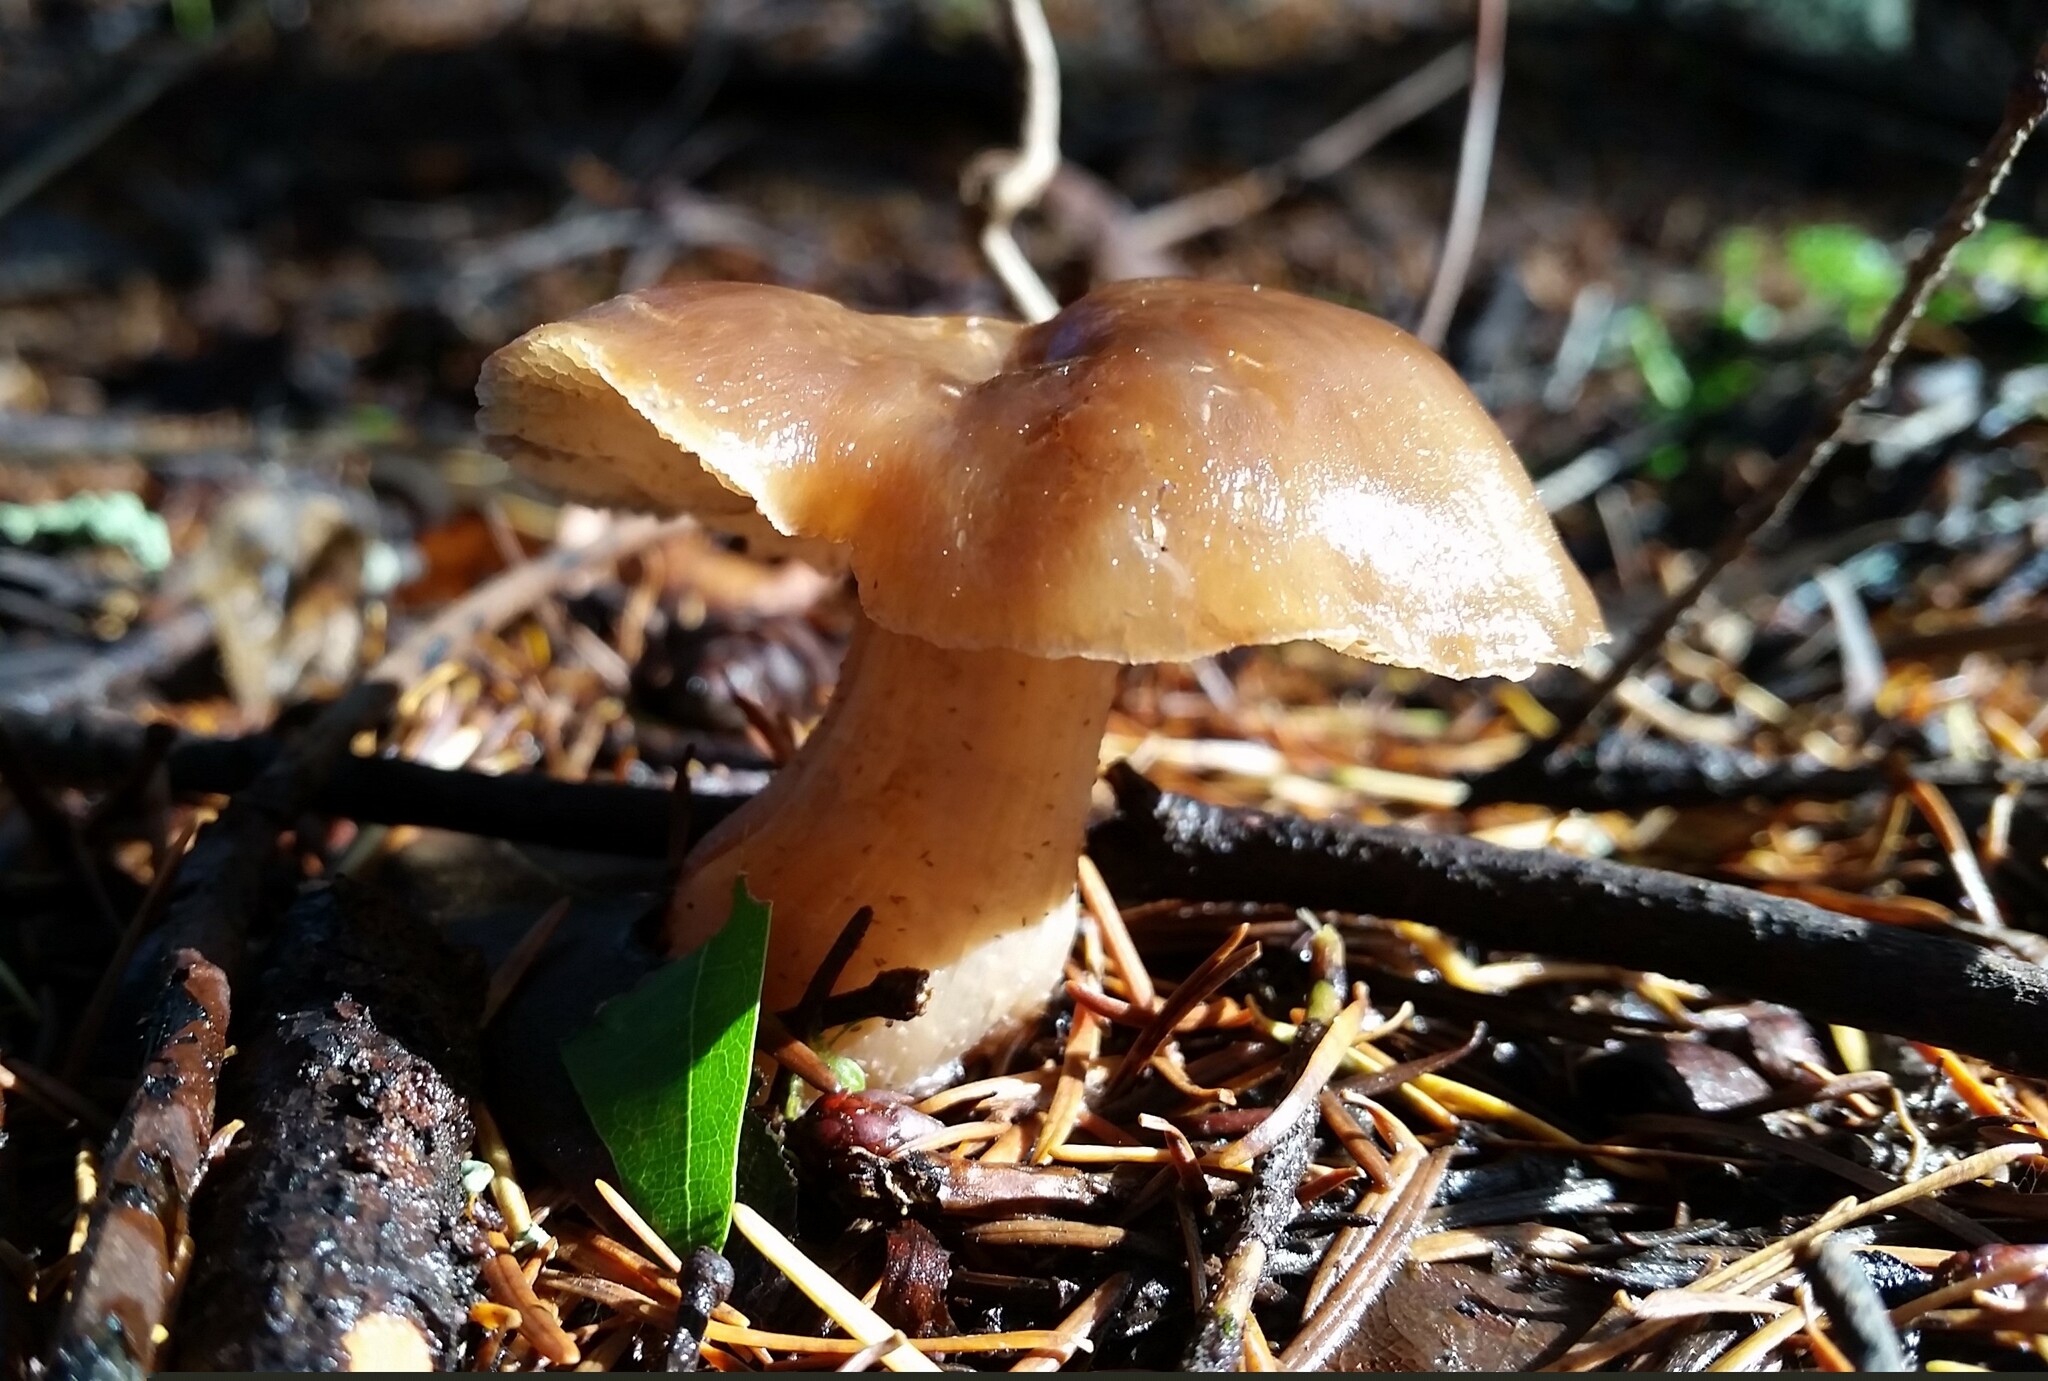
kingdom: Fungi
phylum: Basidiomycota
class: Agaricomycetes
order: Agaricales
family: Omphalotaceae
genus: Rhodocollybia
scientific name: Rhodocollybia butyracea
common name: Butter cap
